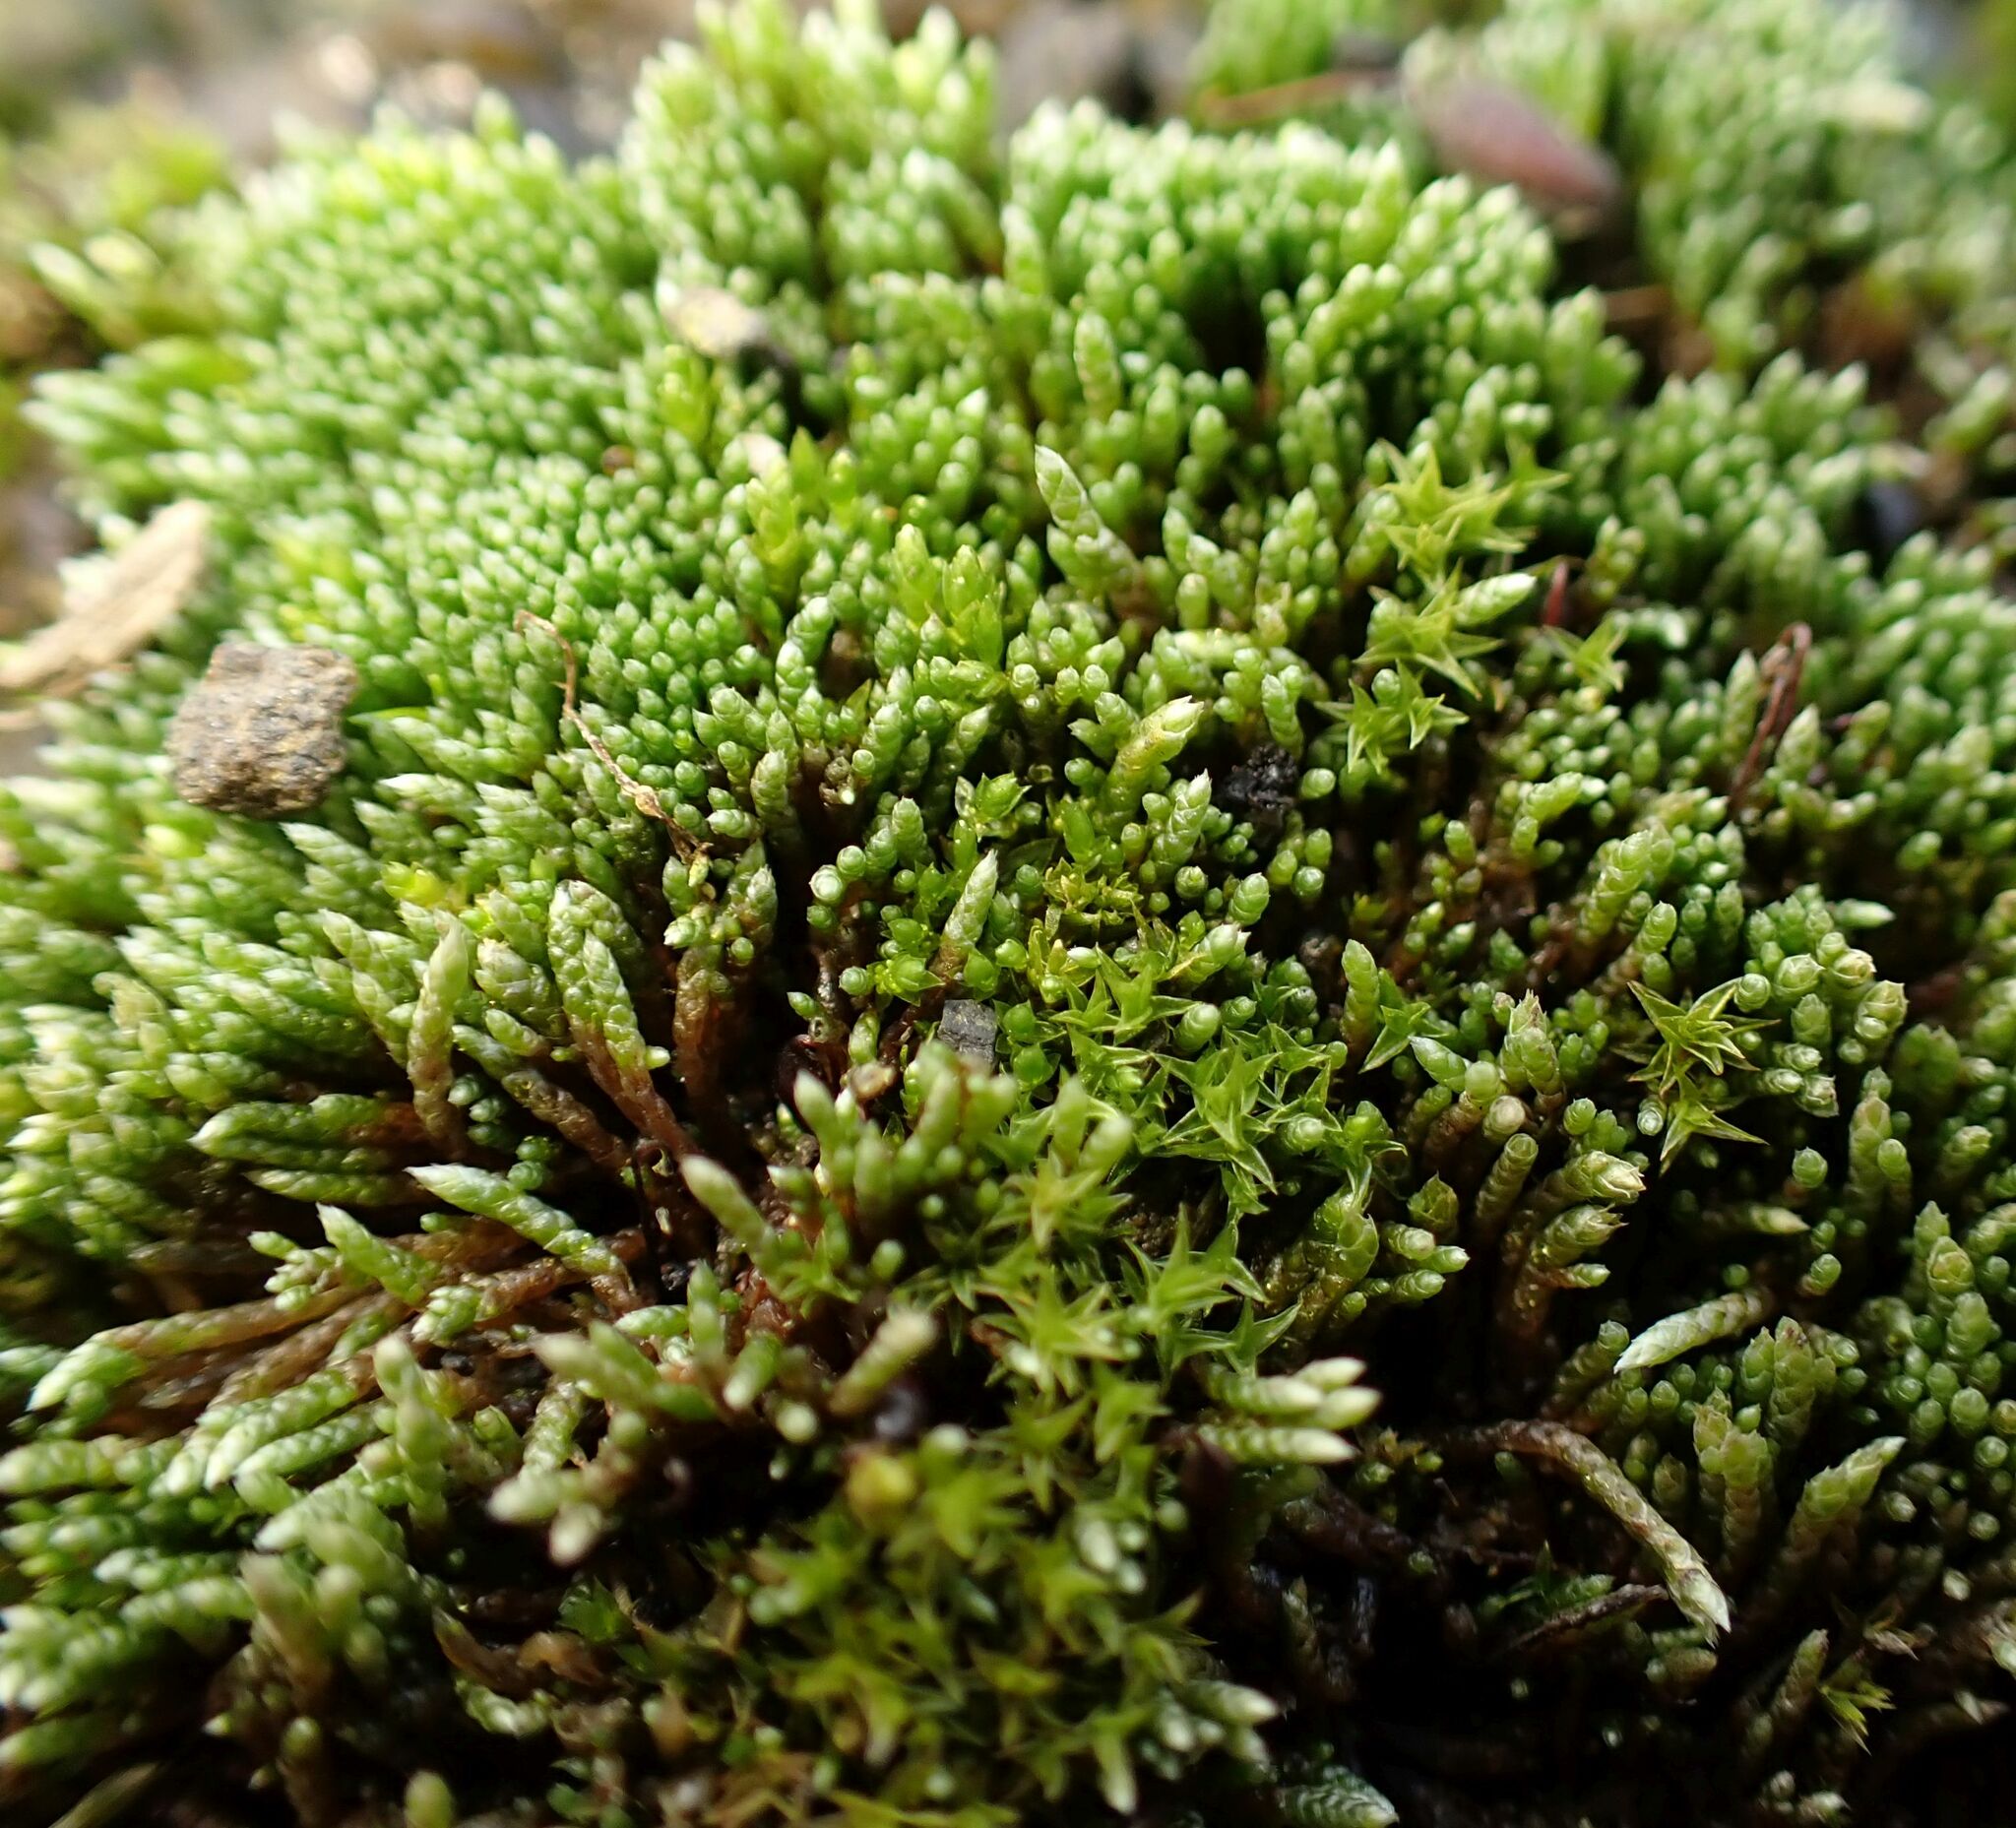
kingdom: Plantae
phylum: Bryophyta
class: Bryopsida
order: Bryales
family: Bryaceae
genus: Bryum
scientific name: Bryum argenteum
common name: Silver-moss
